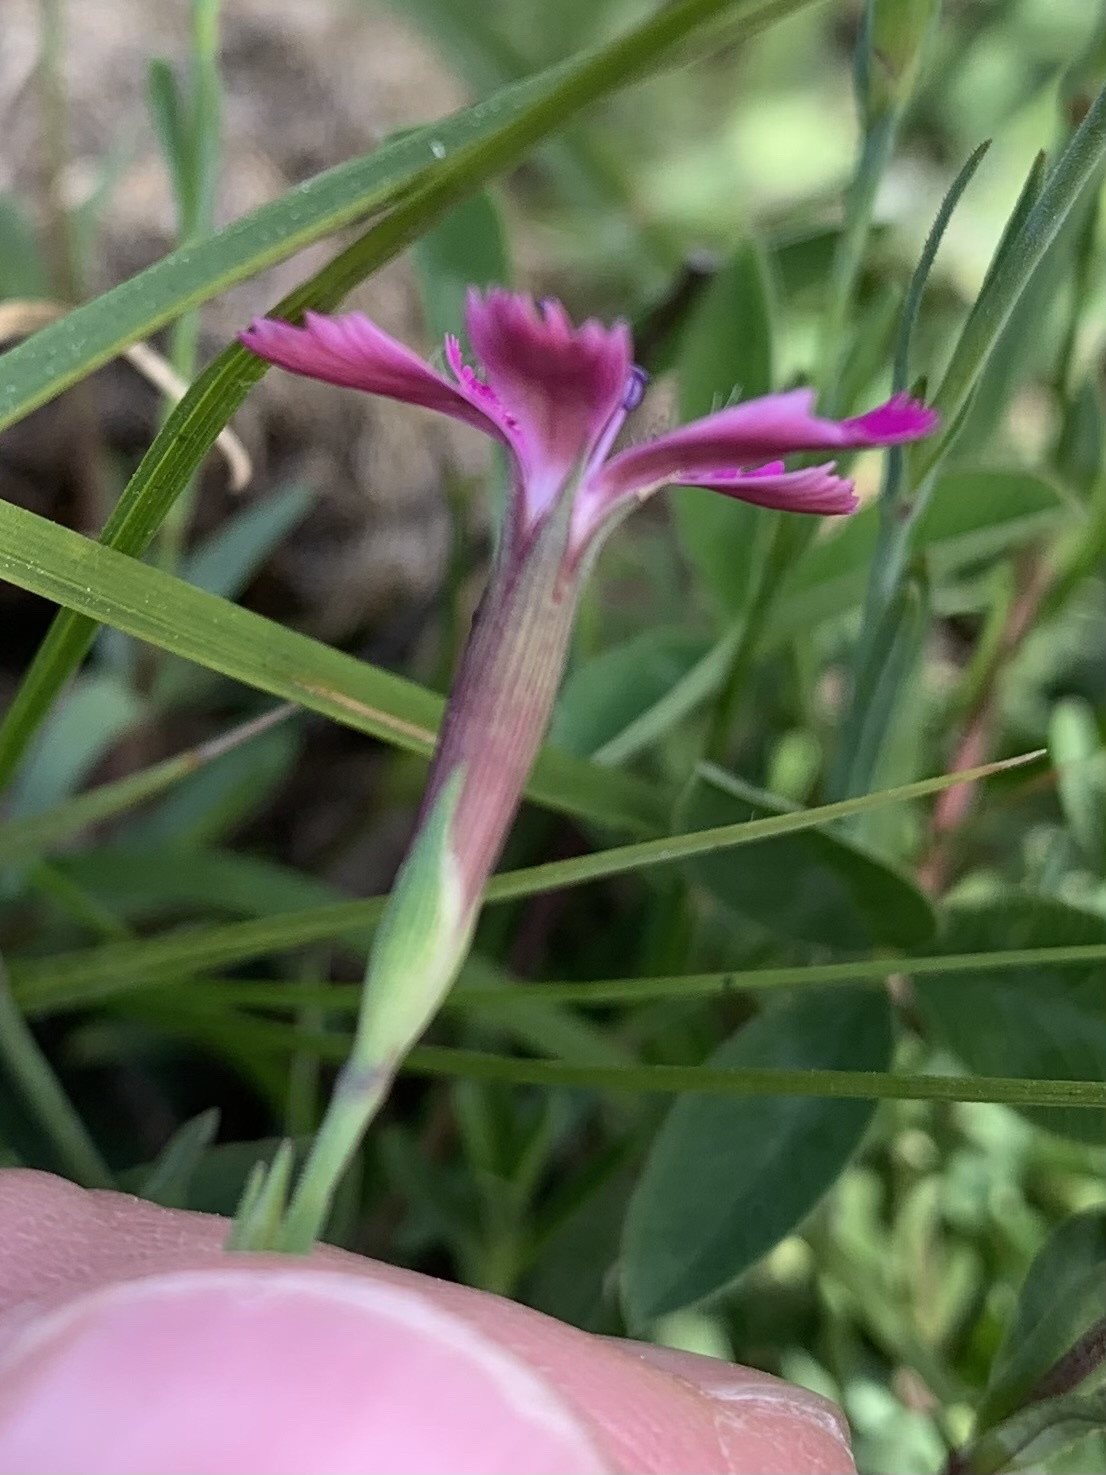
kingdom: Plantae
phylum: Tracheophyta
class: Magnoliopsida
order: Caryophyllales
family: Caryophyllaceae
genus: Dianthus
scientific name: Dianthus deltoides
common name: Maiden pink
